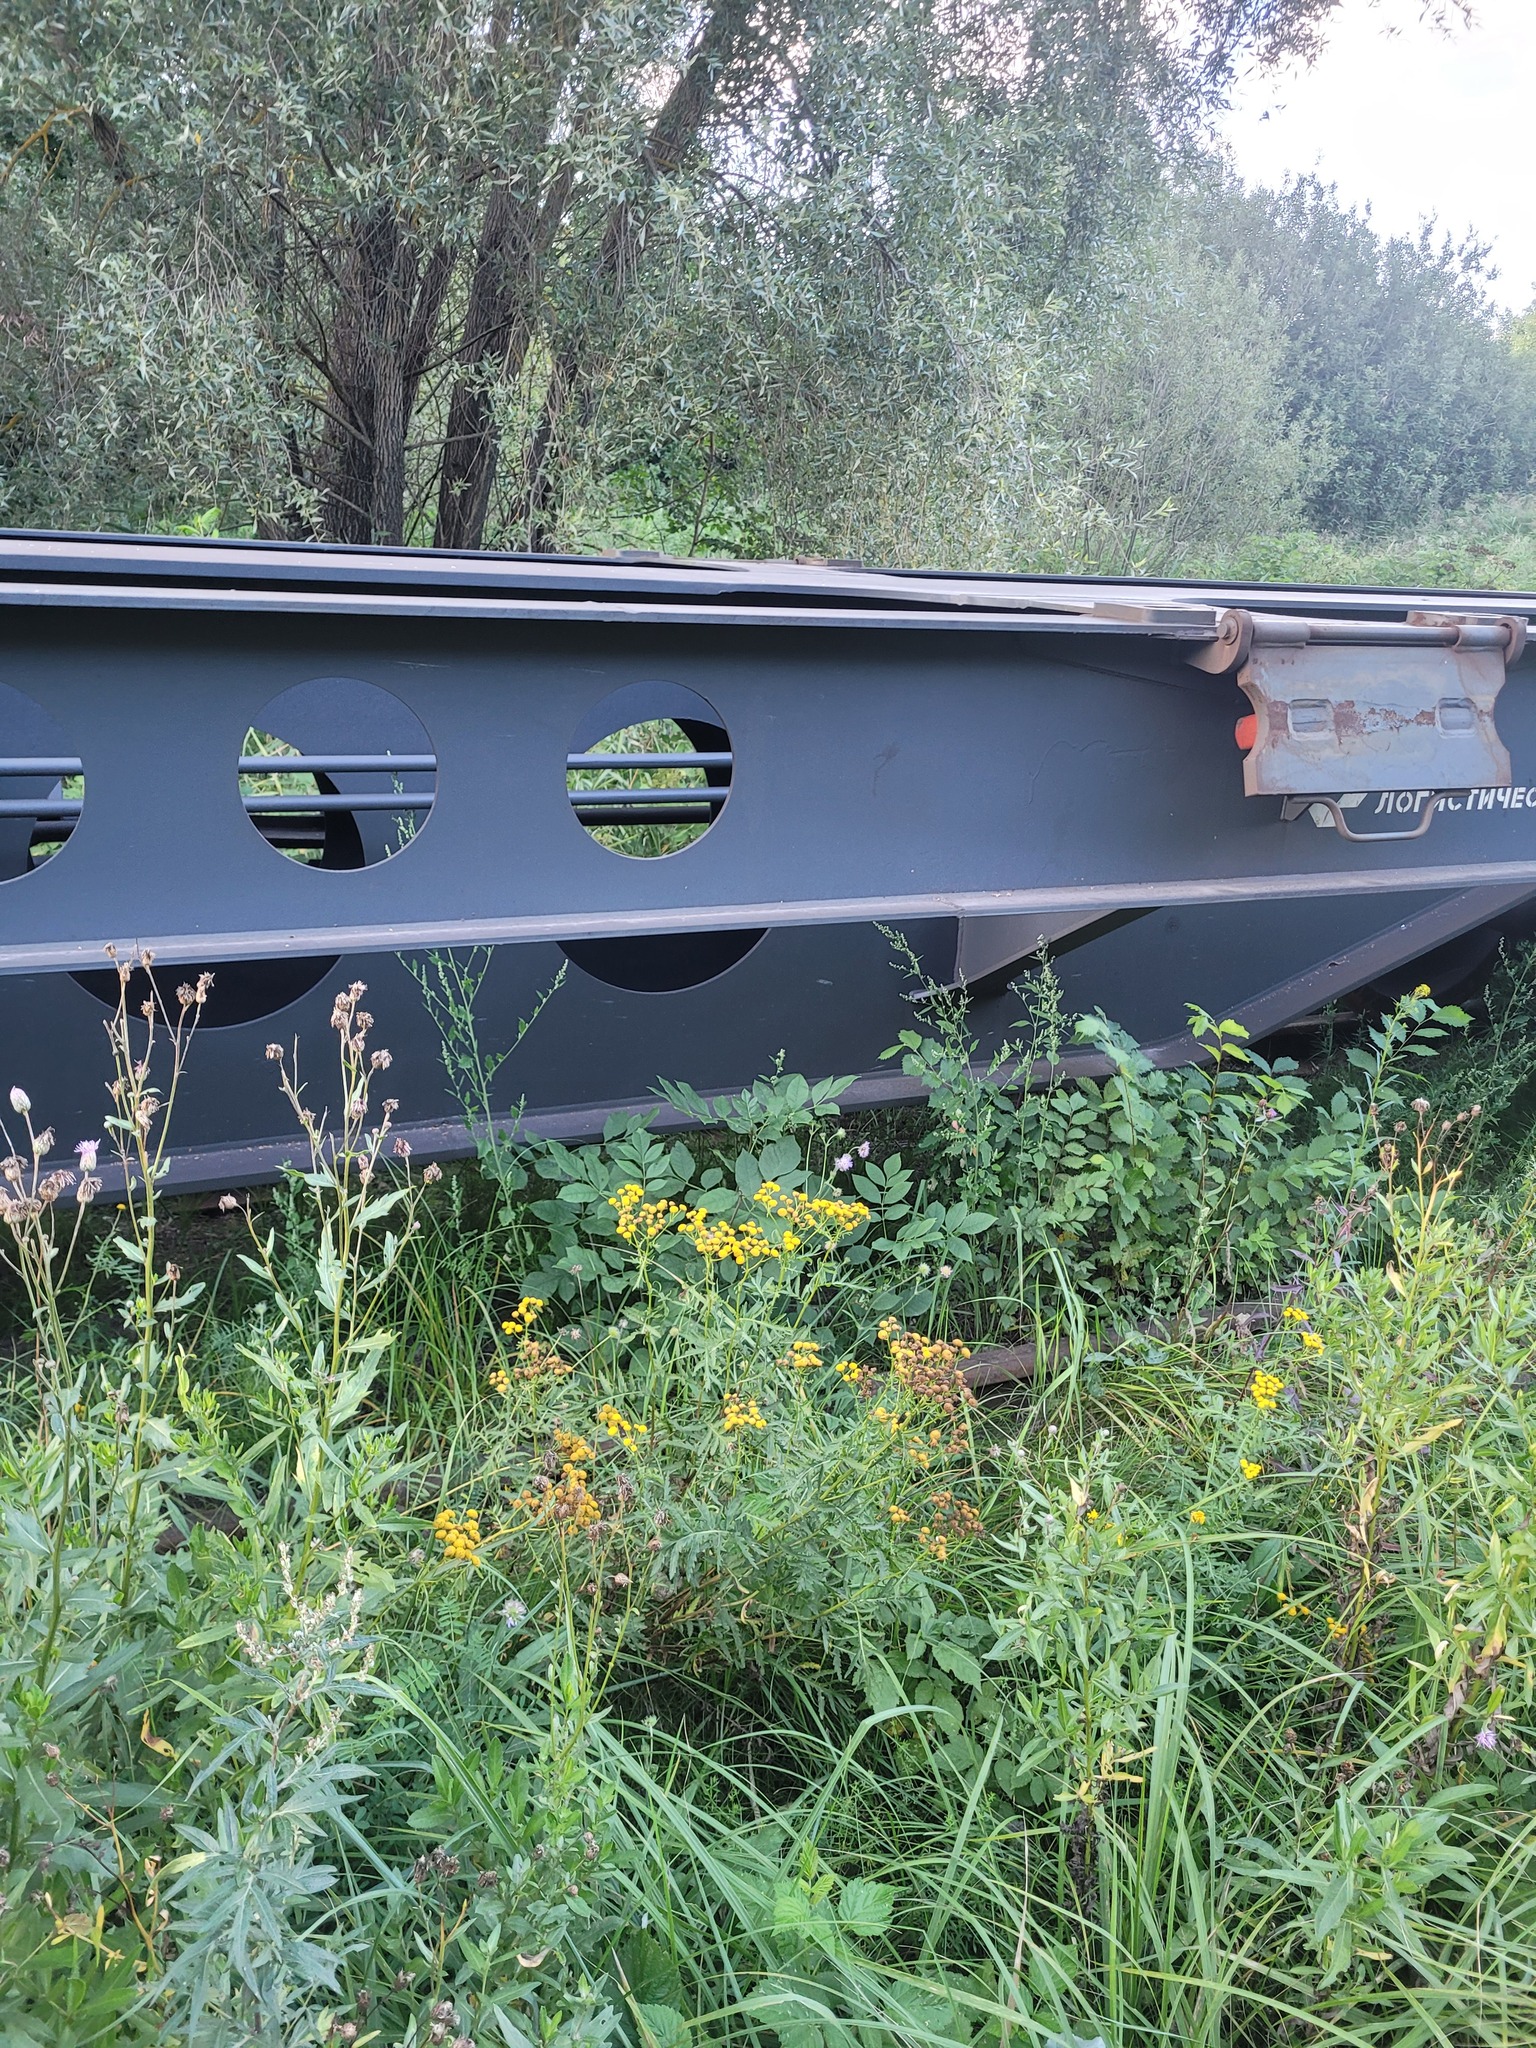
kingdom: Plantae
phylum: Tracheophyta
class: Magnoliopsida
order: Asterales
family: Asteraceae
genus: Tanacetum
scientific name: Tanacetum vulgare
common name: Common tansy
